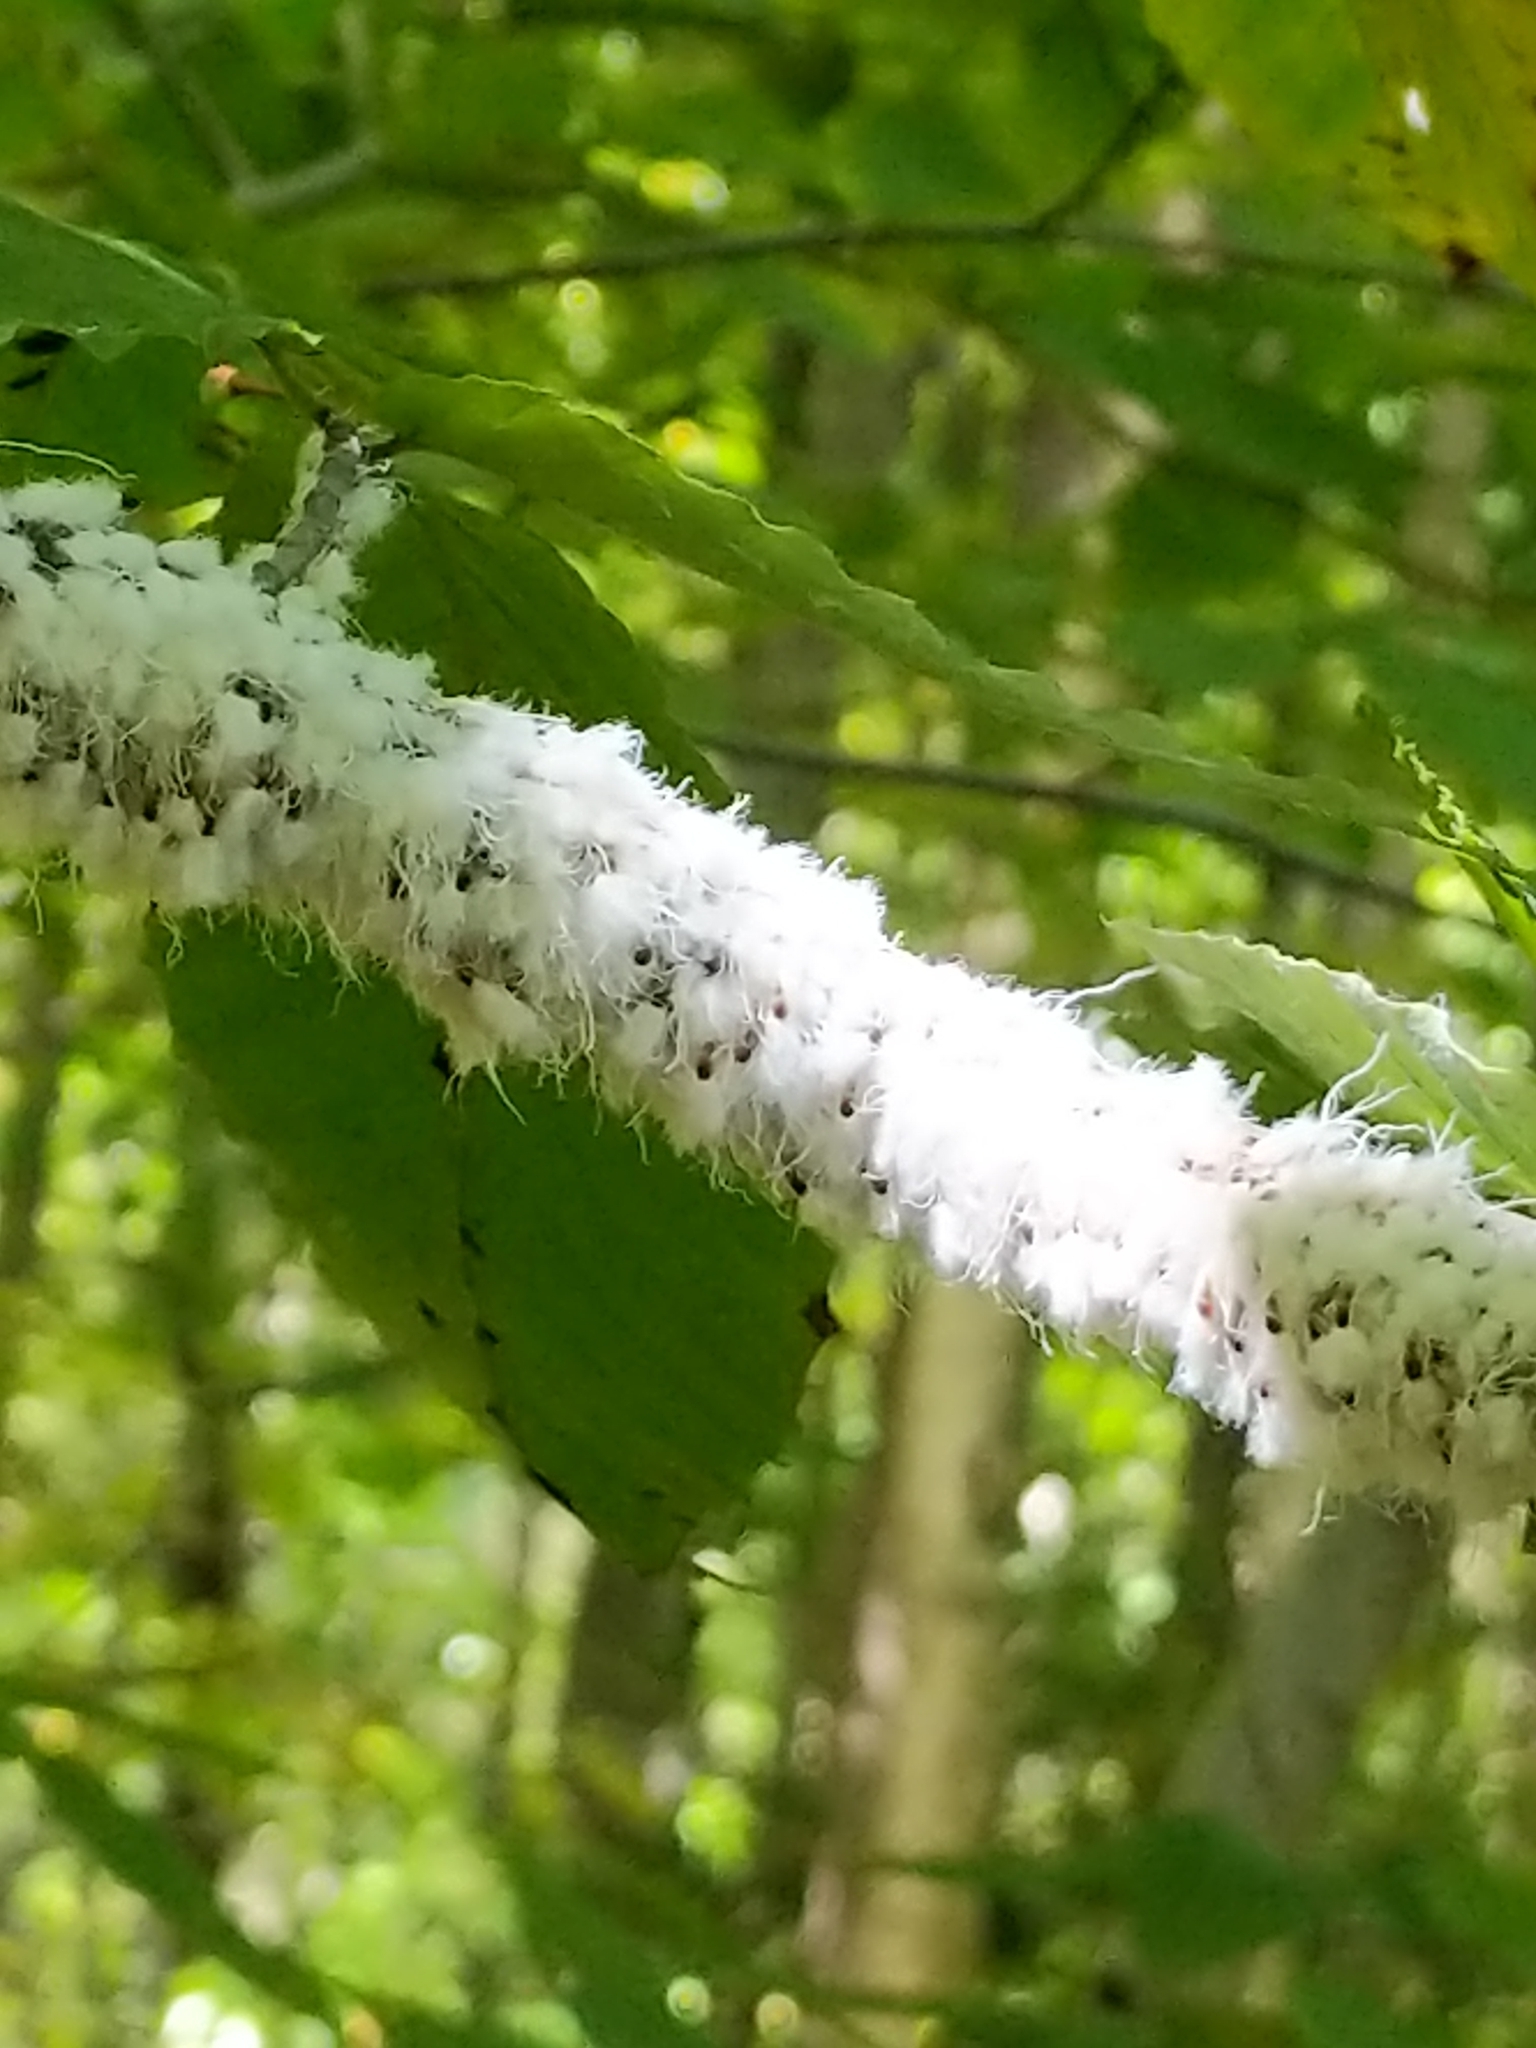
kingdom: Animalia
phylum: Arthropoda
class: Insecta
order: Hemiptera
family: Aphididae
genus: Grylloprociphilus
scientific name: Grylloprociphilus imbricator
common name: Beech blight aphid
